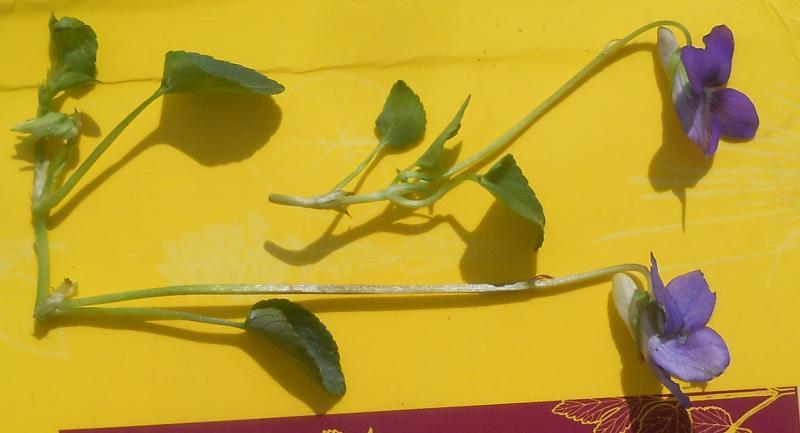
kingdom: Plantae
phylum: Tracheophyta
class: Magnoliopsida
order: Malpighiales
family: Violaceae
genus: Viola
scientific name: Viola riviniana
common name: Common dog-violet
